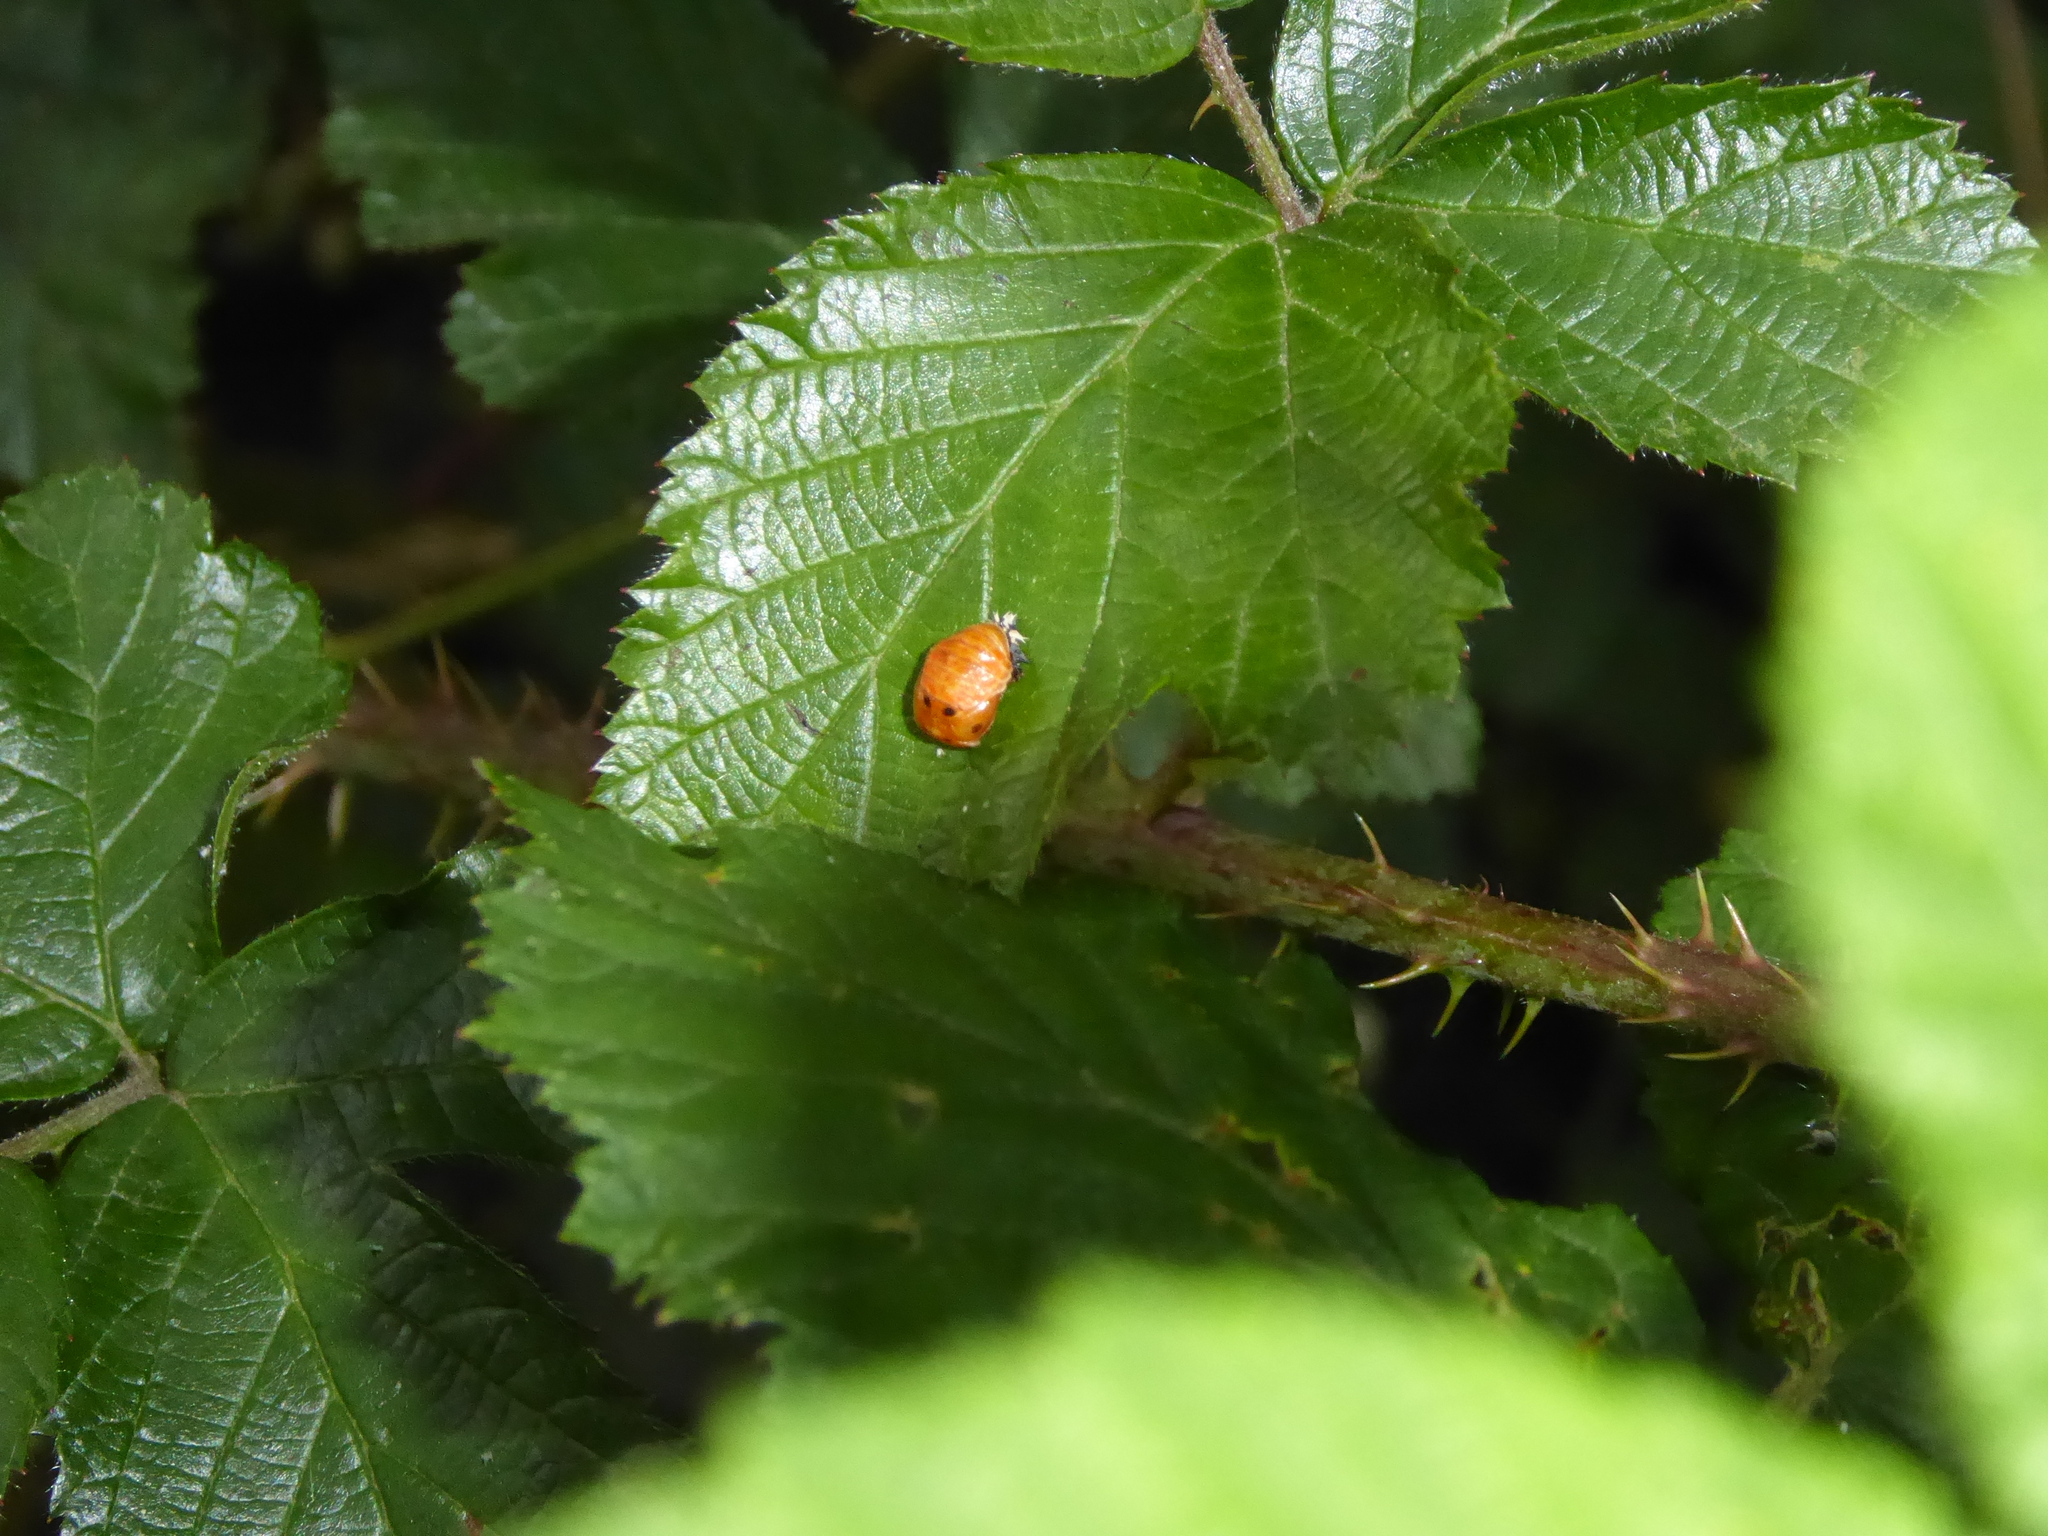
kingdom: Animalia
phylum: Arthropoda
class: Insecta
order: Coleoptera
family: Coccinellidae
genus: Harmonia
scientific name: Harmonia axyridis
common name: Harlequin ladybird
